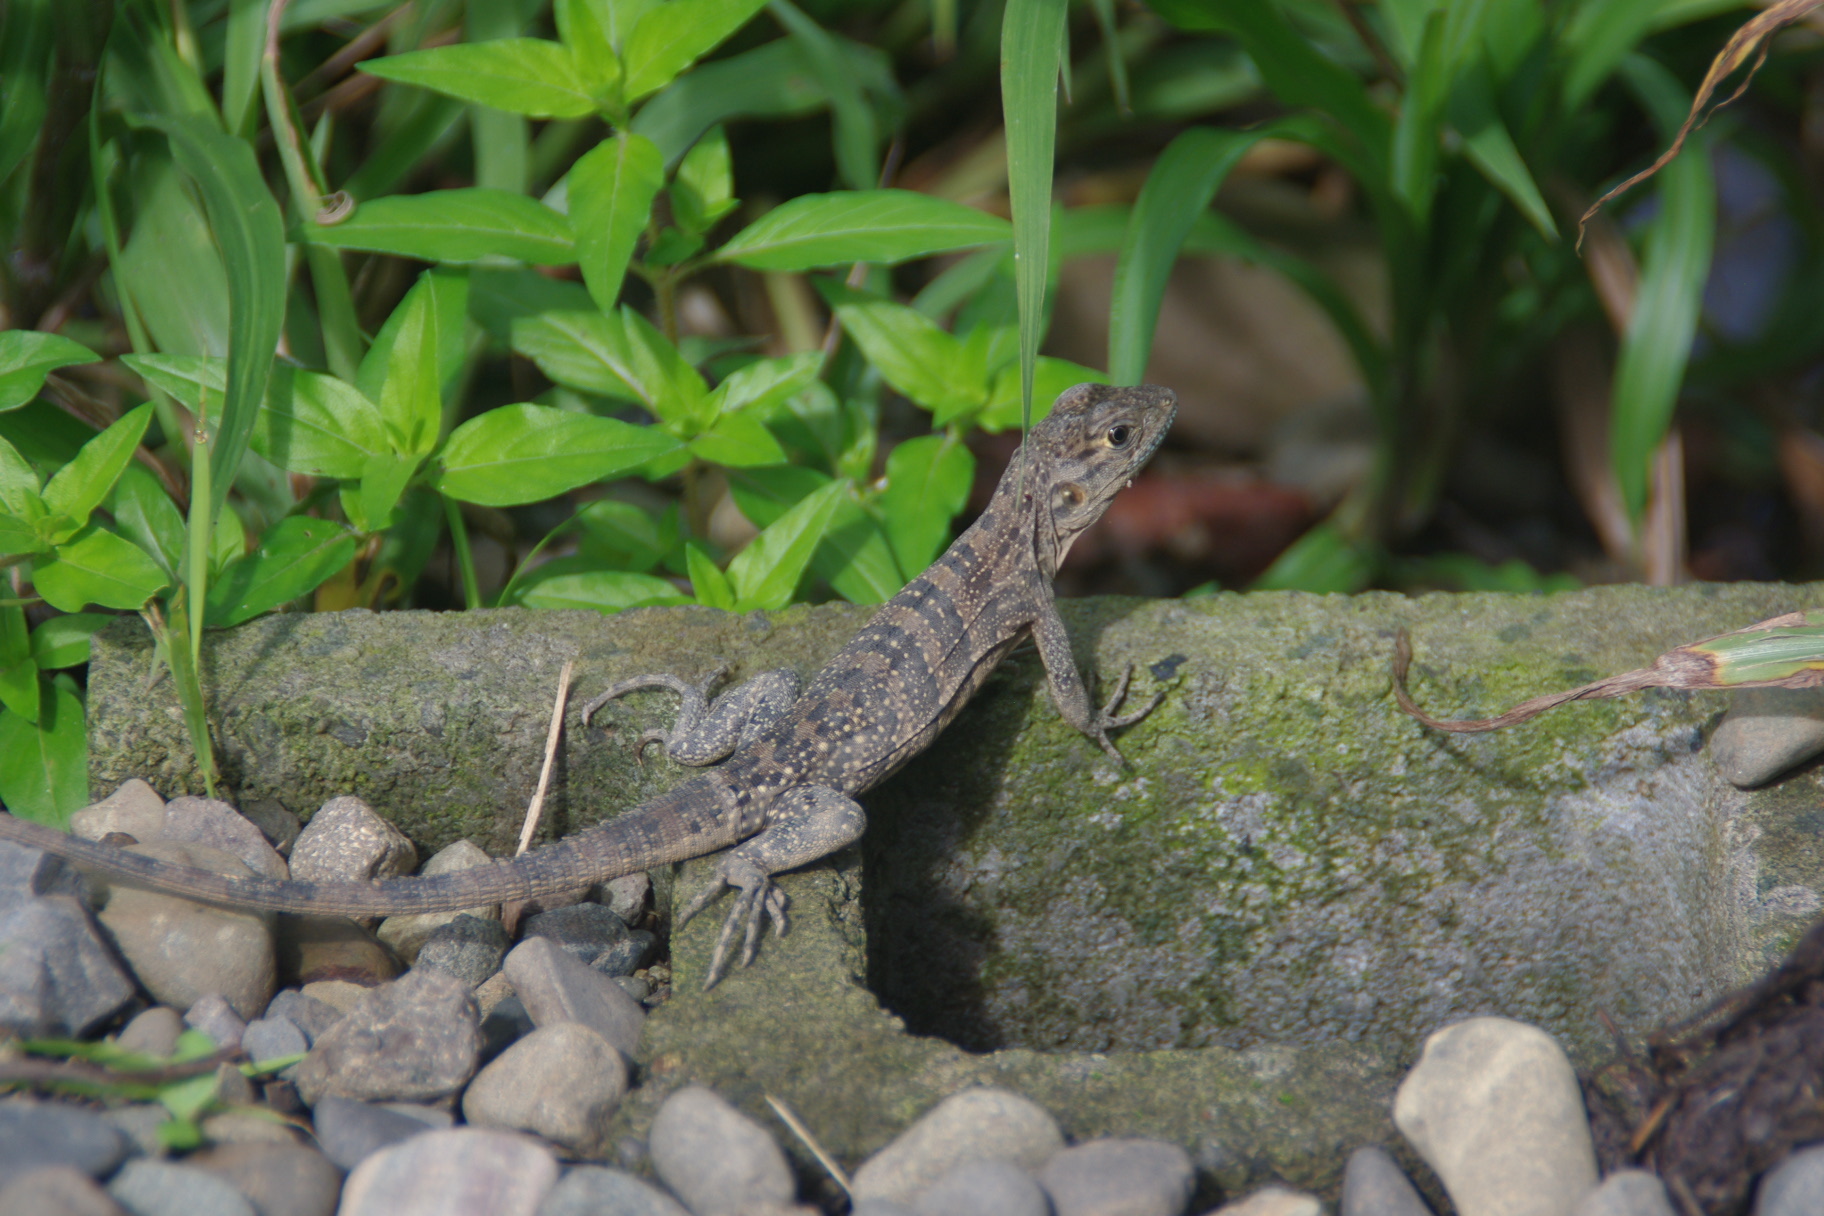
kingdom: Animalia
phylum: Chordata
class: Squamata
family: Iguanidae
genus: Ctenosaura
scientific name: Ctenosaura similis
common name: Black spiny-tailed iguana
